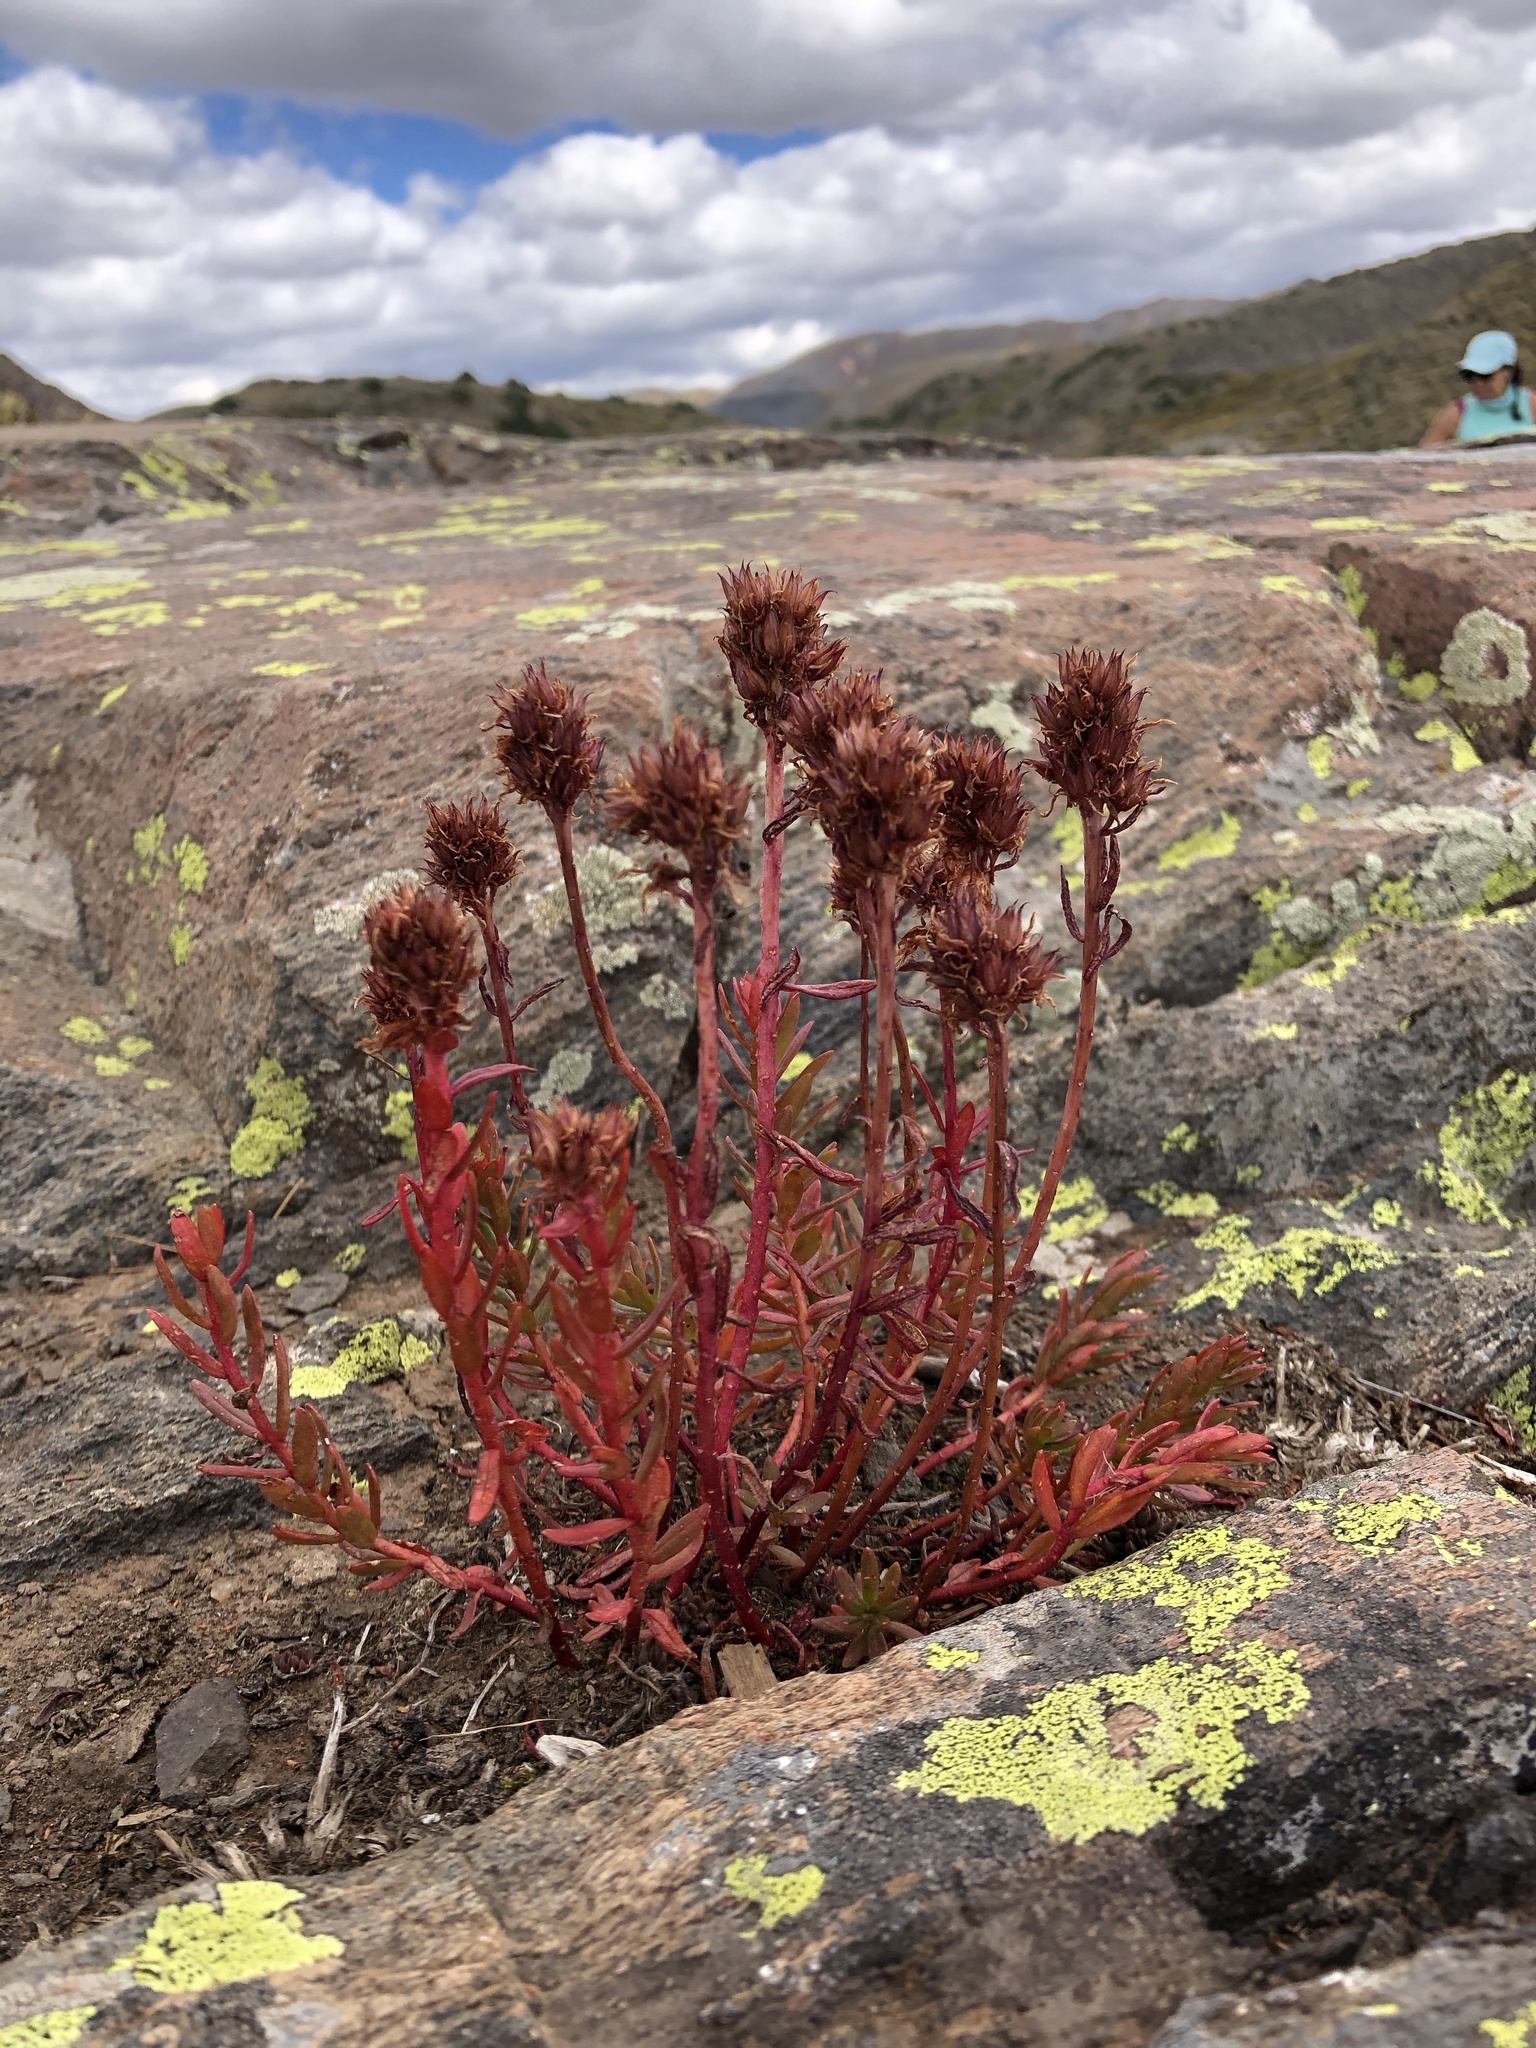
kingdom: Plantae
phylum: Tracheophyta
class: Magnoliopsida
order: Saxifragales
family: Crassulaceae
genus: Rhodiola
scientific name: Rhodiola rhodantha
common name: Red orpine
